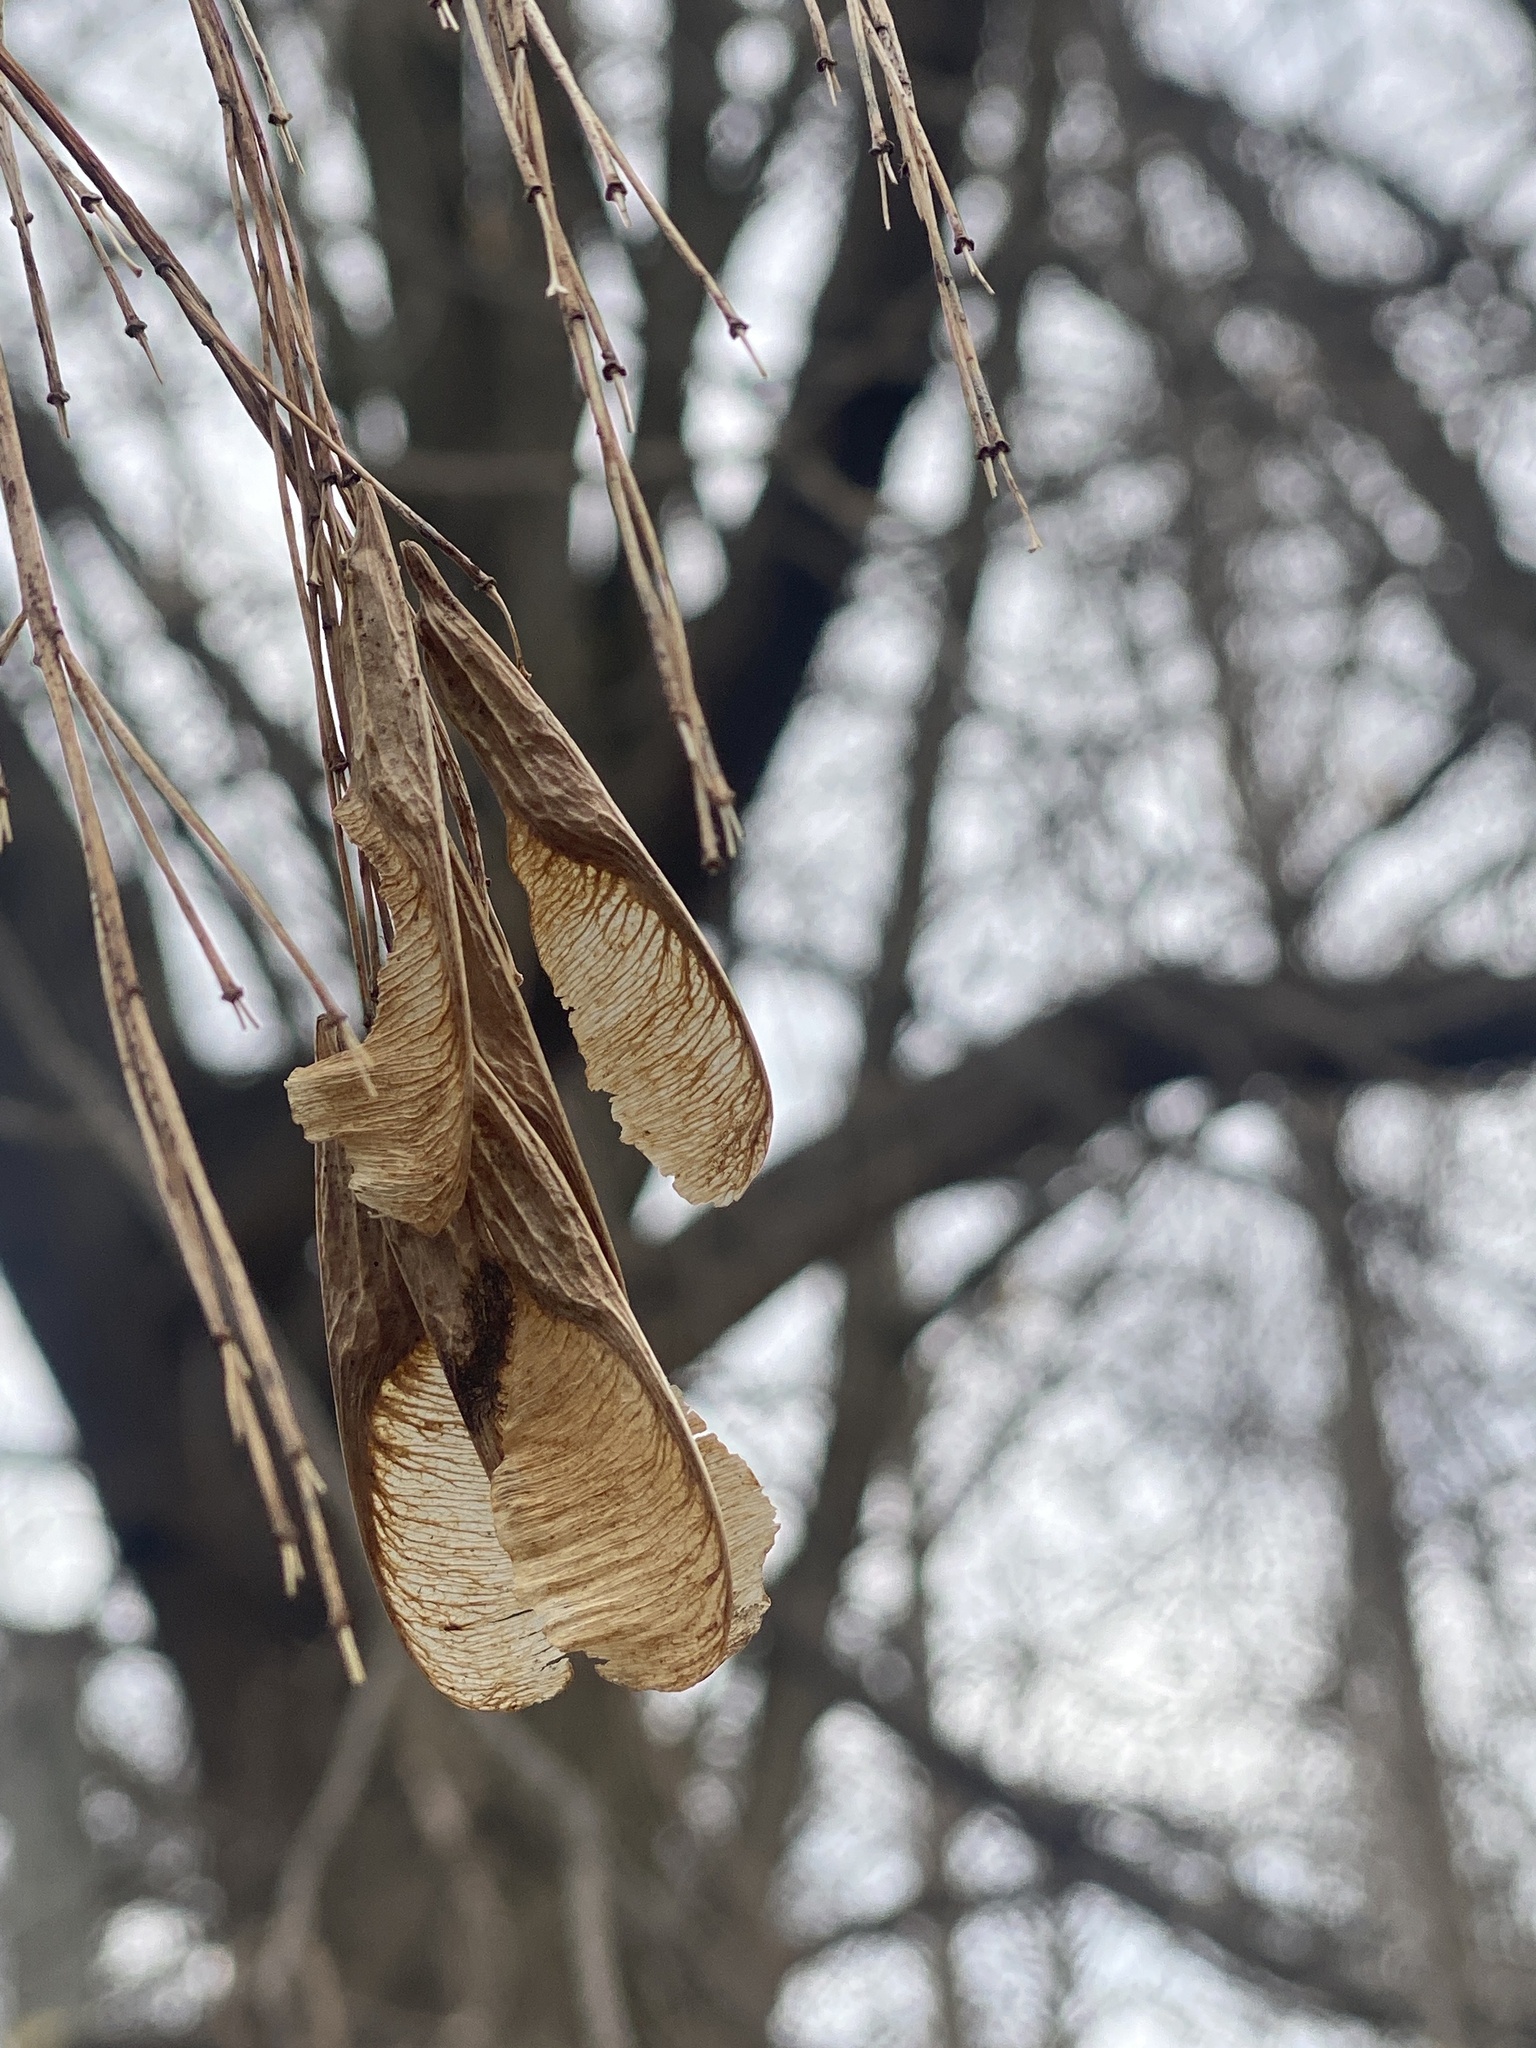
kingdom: Plantae
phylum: Tracheophyta
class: Magnoliopsida
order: Sapindales
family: Sapindaceae
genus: Acer
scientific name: Acer negundo
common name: Ashleaf maple
